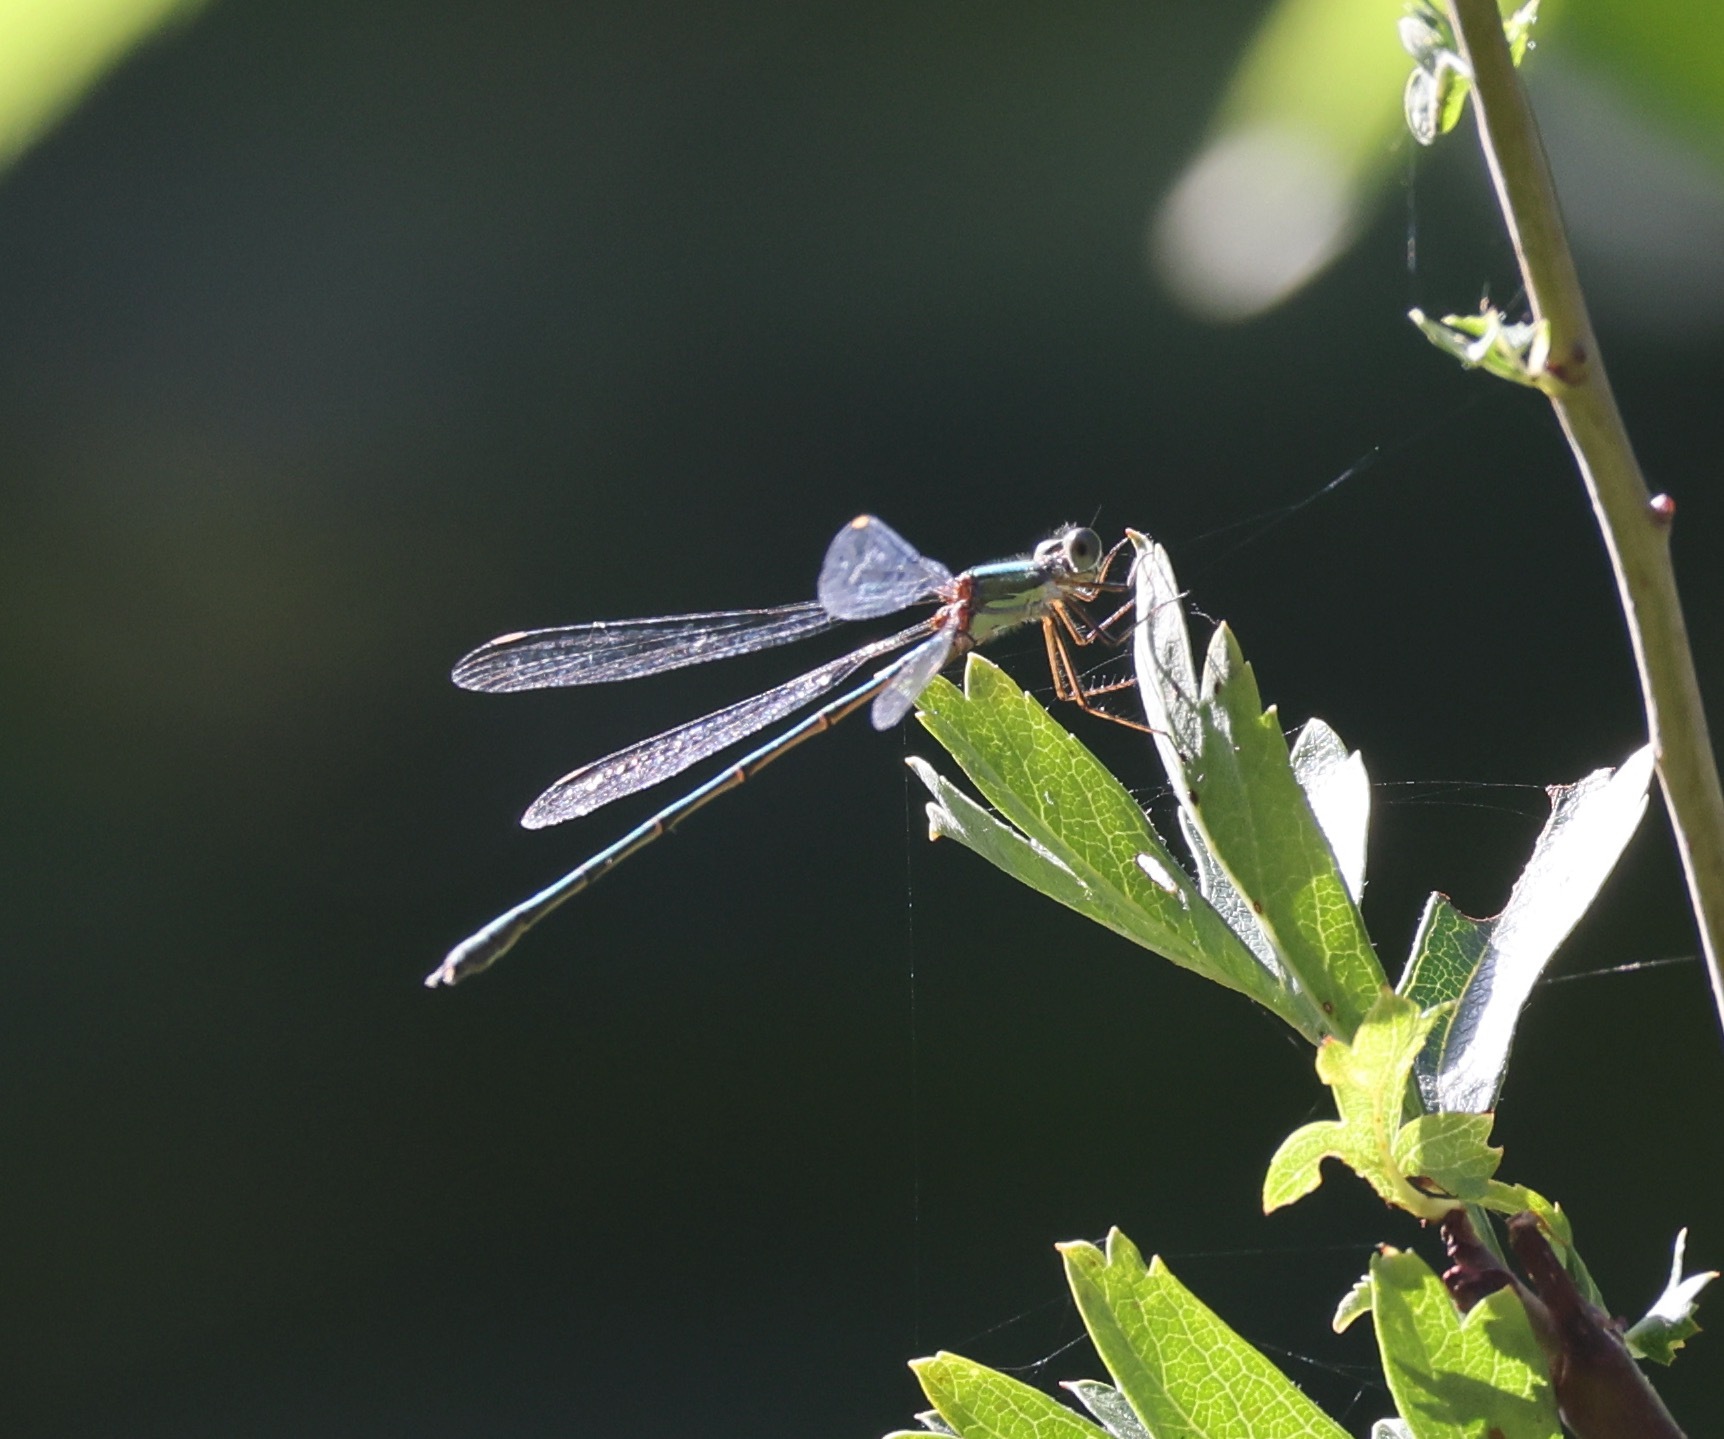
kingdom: Animalia
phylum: Arthropoda
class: Insecta
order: Odonata
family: Lestidae
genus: Chalcolestes
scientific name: Chalcolestes viridis
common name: Green emerald damselfly
